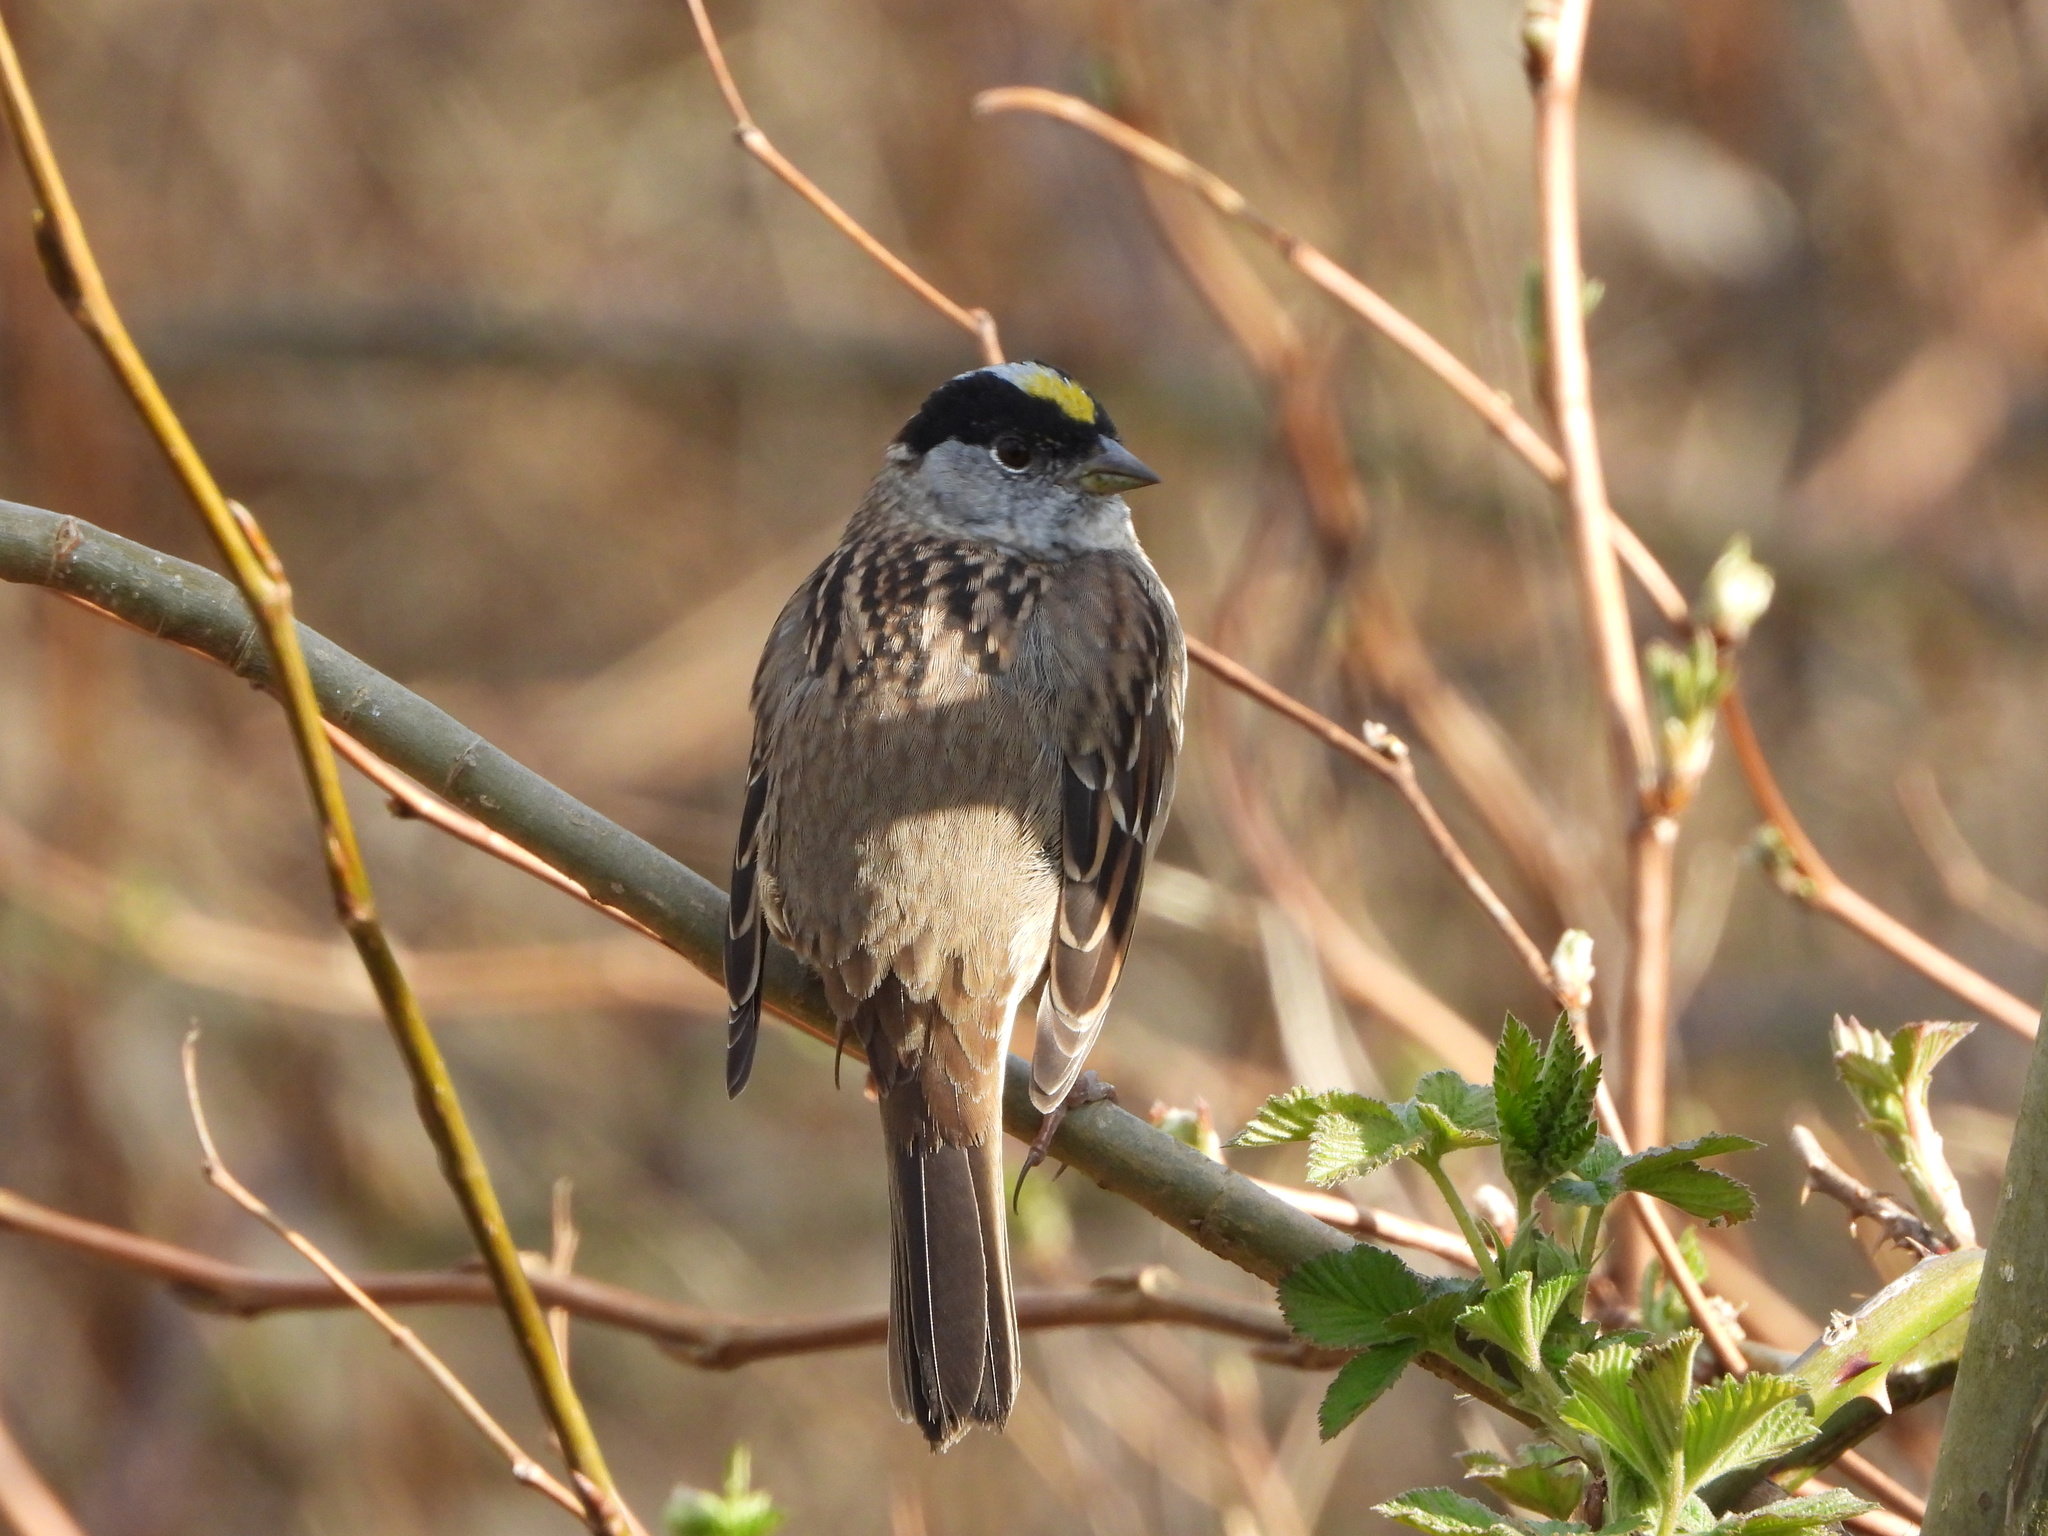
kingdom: Animalia
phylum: Chordata
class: Aves
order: Passeriformes
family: Passerellidae
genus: Zonotrichia
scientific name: Zonotrichia atricapilla
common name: Golden-crowned sparrow
